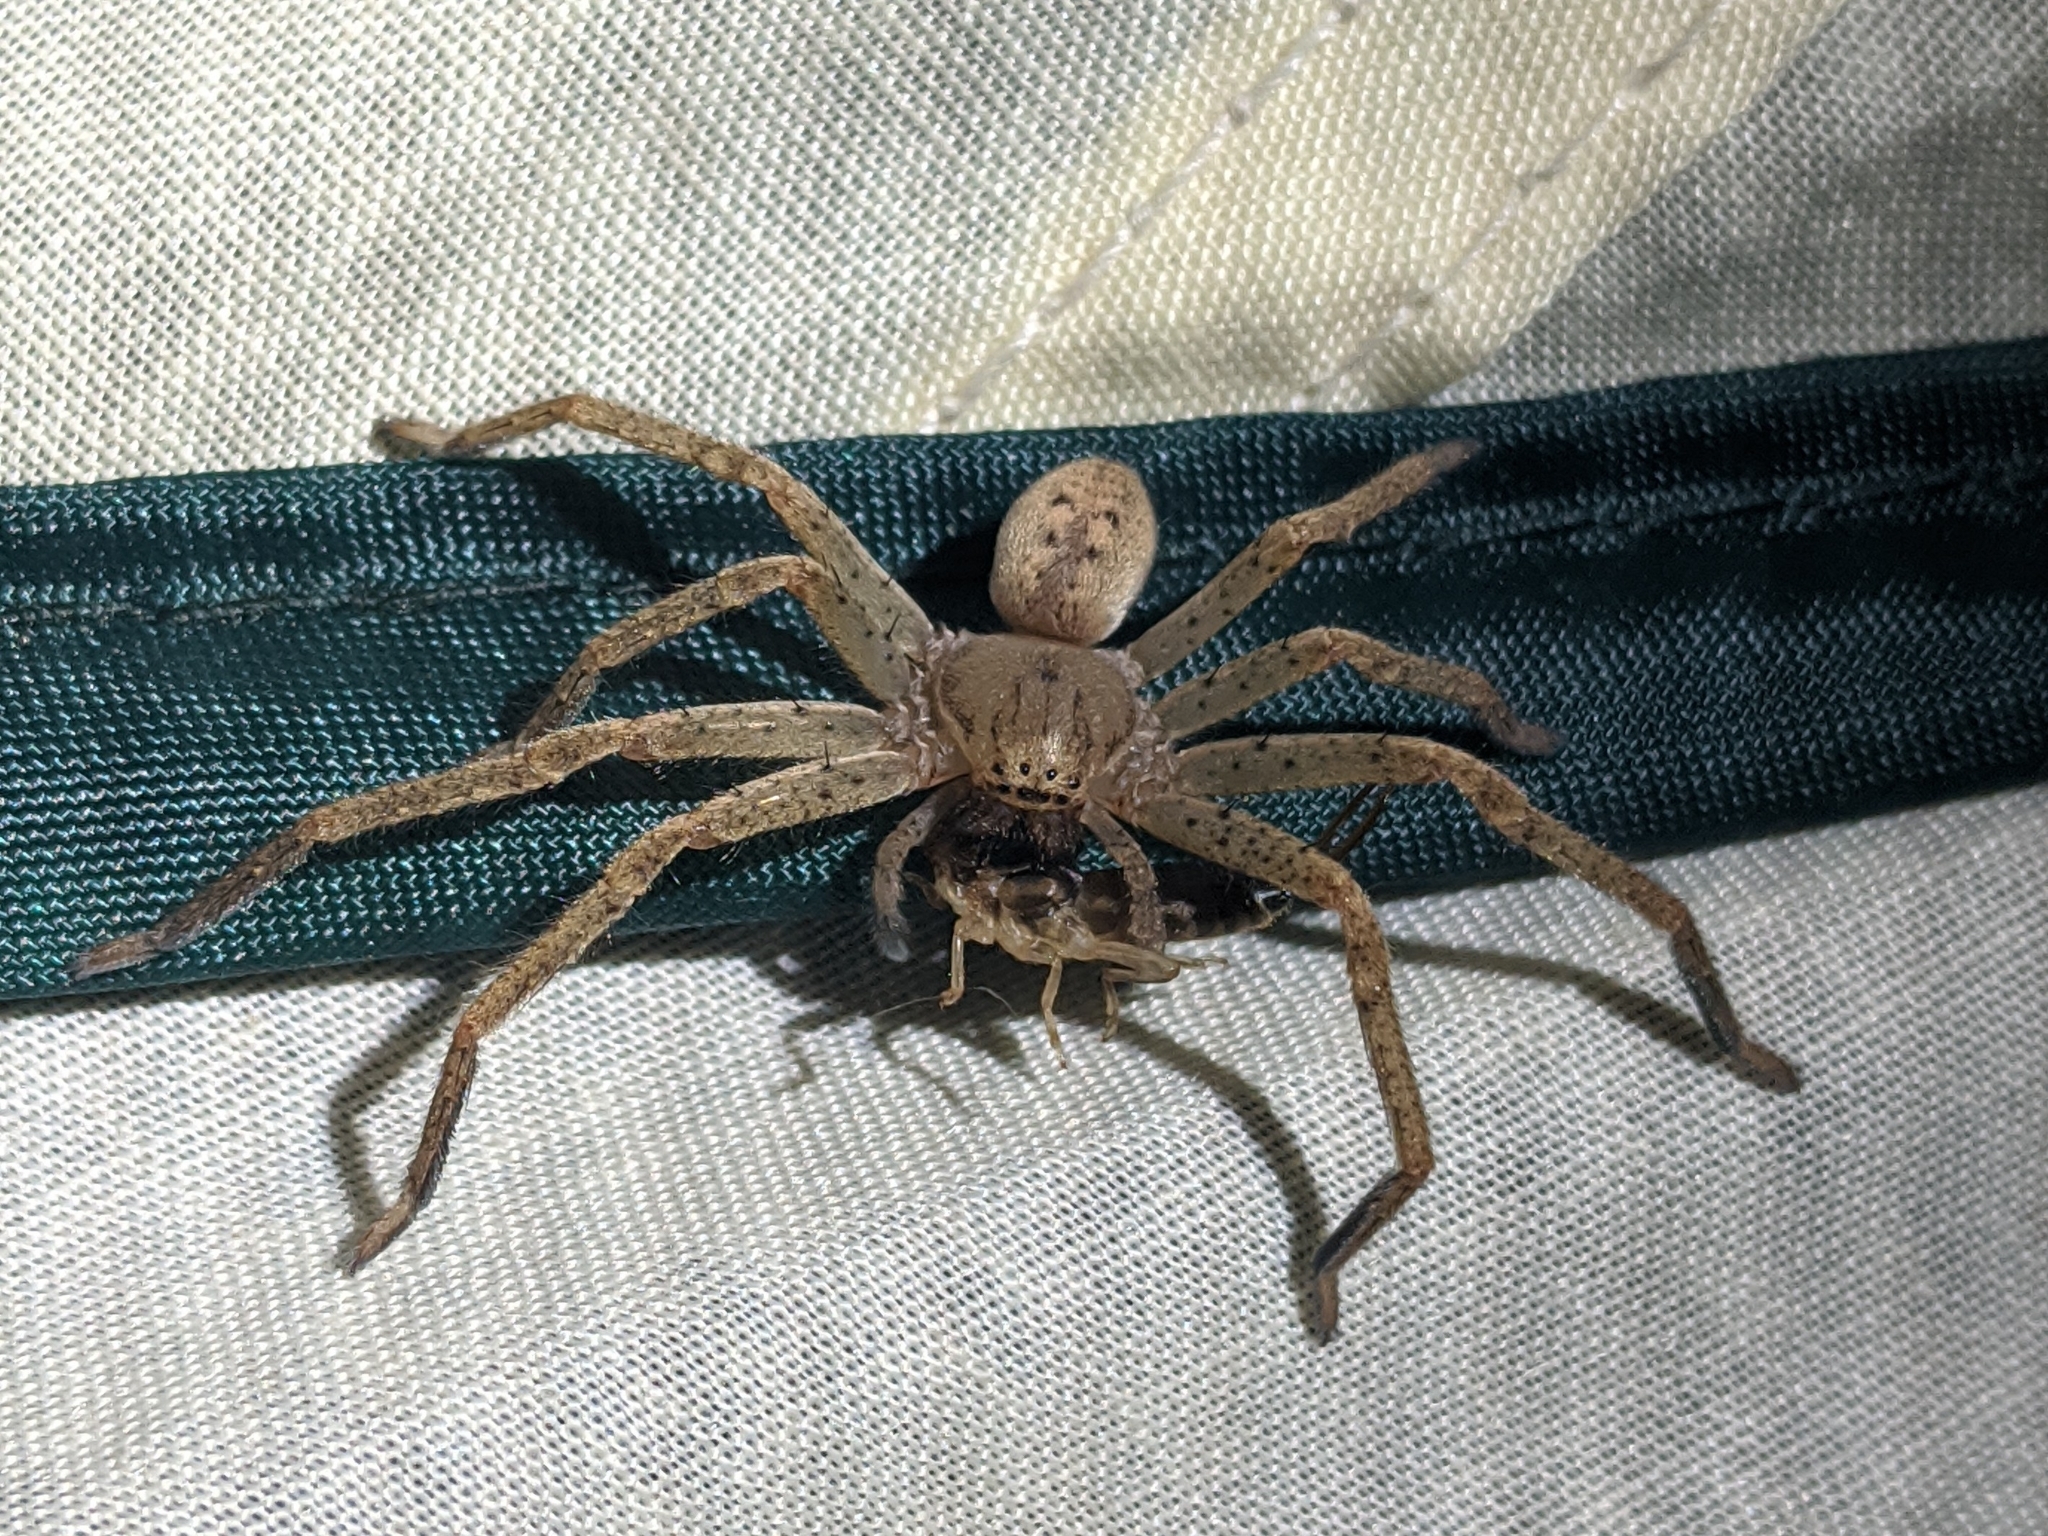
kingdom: Animalia
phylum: Arthropoda
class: Arachnida
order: Araneae
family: Sparassidae
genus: Olios
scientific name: Olios argelasius
